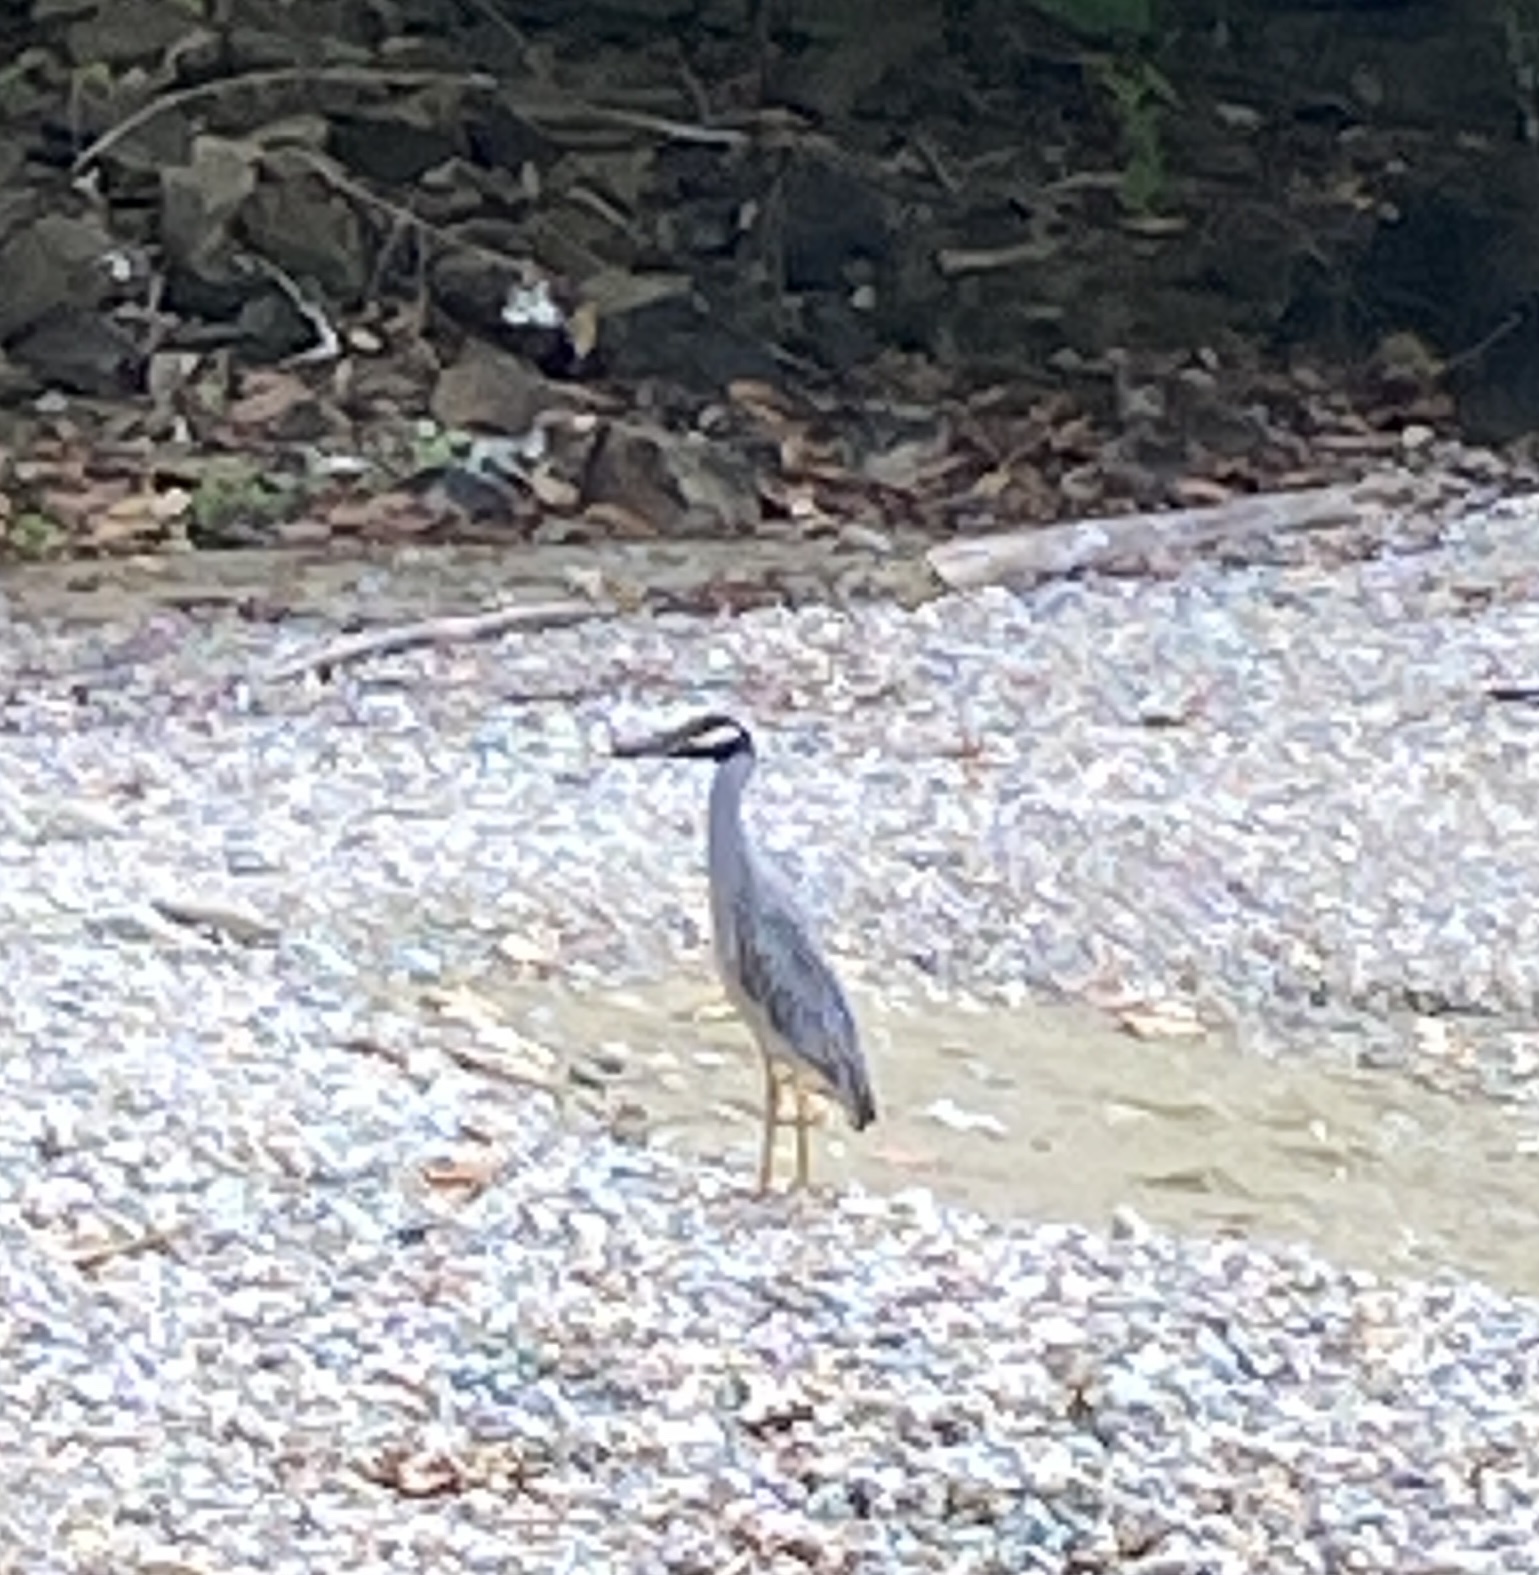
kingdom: Animalia
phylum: Chordata
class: Aves
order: Pelecaniformes
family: Ardeidae
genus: Nyctanassa
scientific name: Nyctanassa violacea
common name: Yellow-crowned night heron
